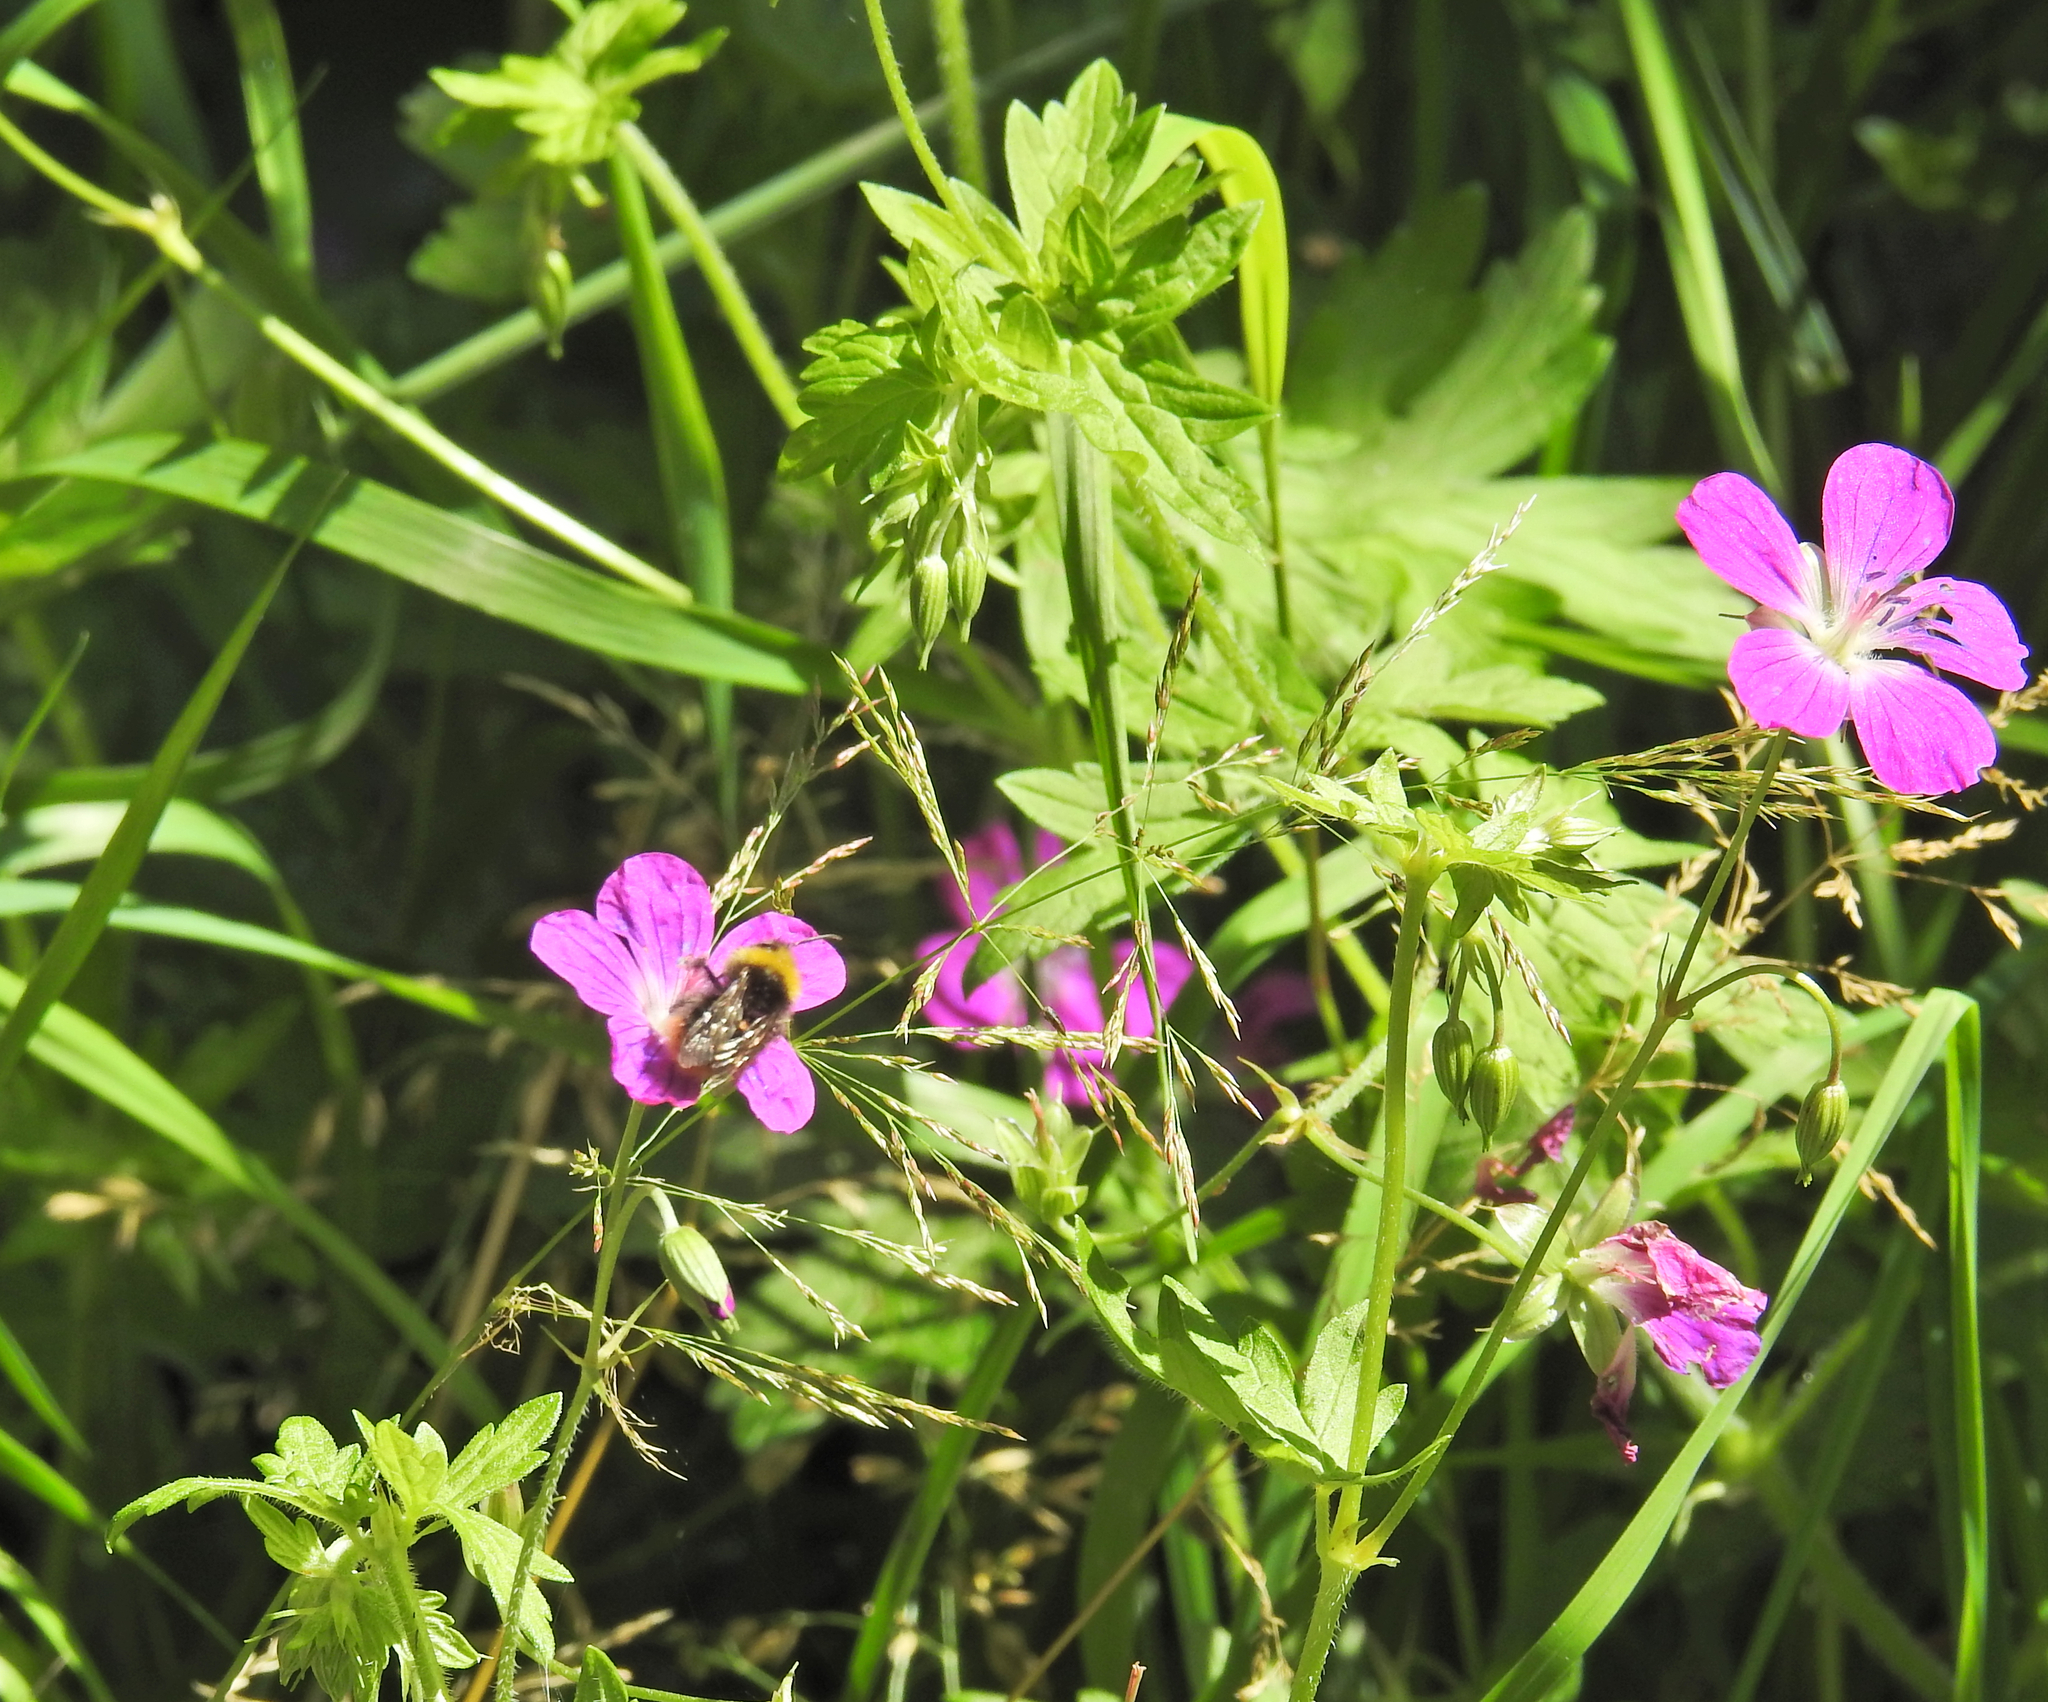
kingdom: Animalia
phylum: Arthropoda
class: Insecta
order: Hymenoptera
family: Apidae
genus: Bombus
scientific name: Bombus pratorum
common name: Early humble-bee
